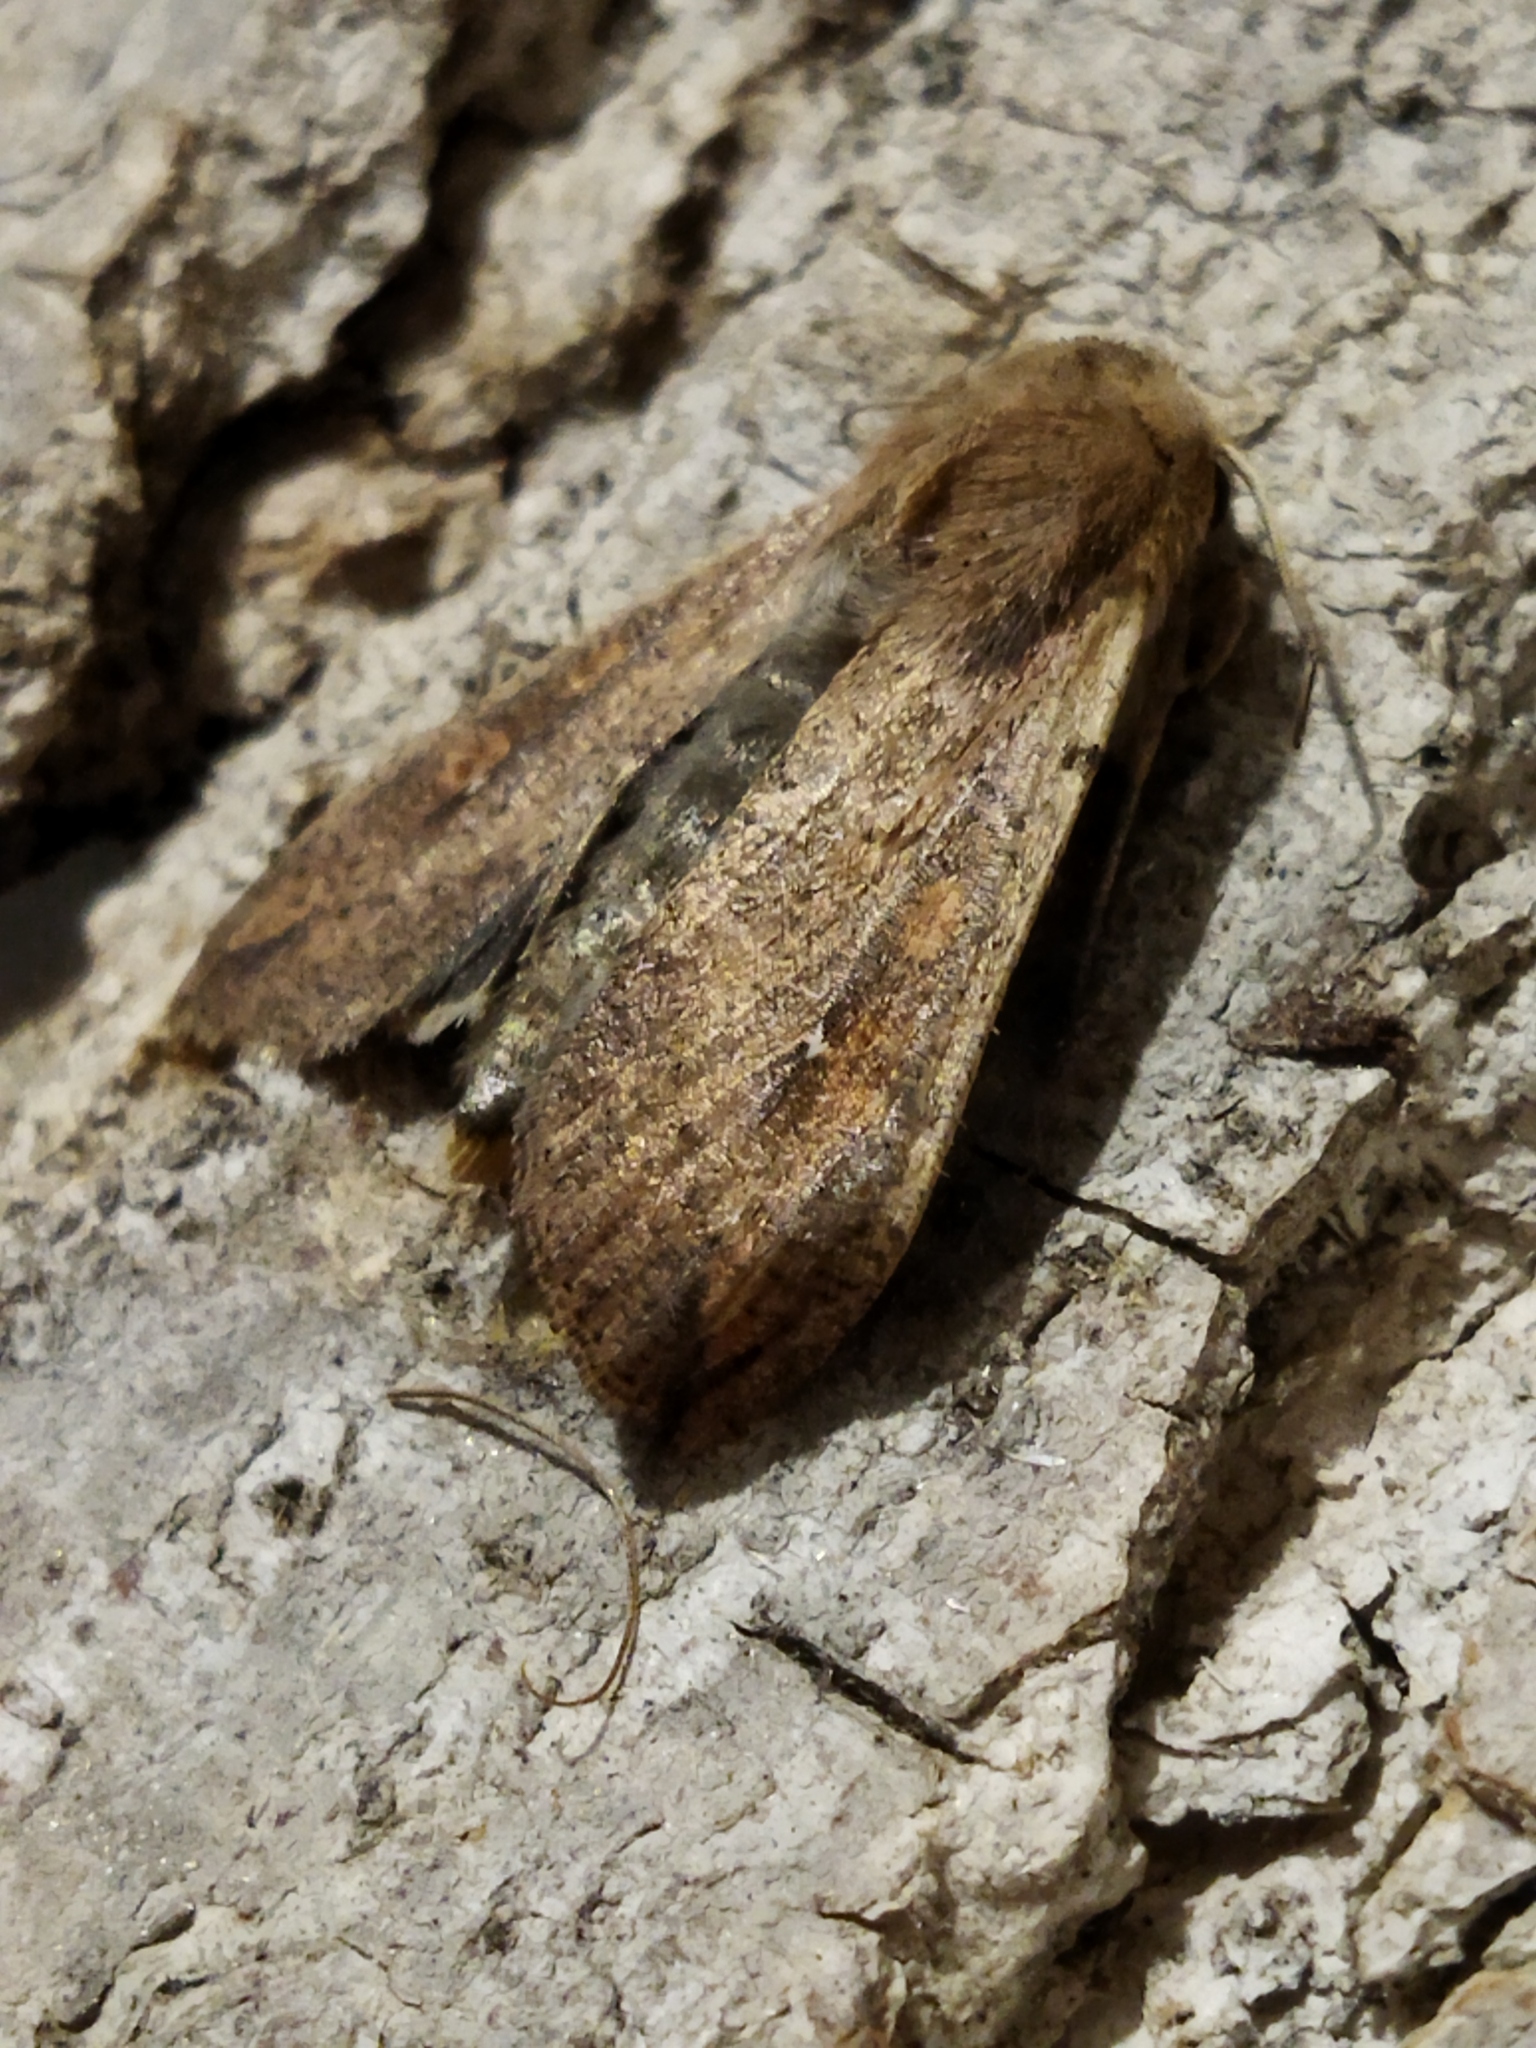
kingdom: Animalia
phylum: Arthropoda
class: Insecta
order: Lepidoptera
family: Noctuidae
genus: Mythimna
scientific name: Mythimna unipuncta
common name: White-speck
